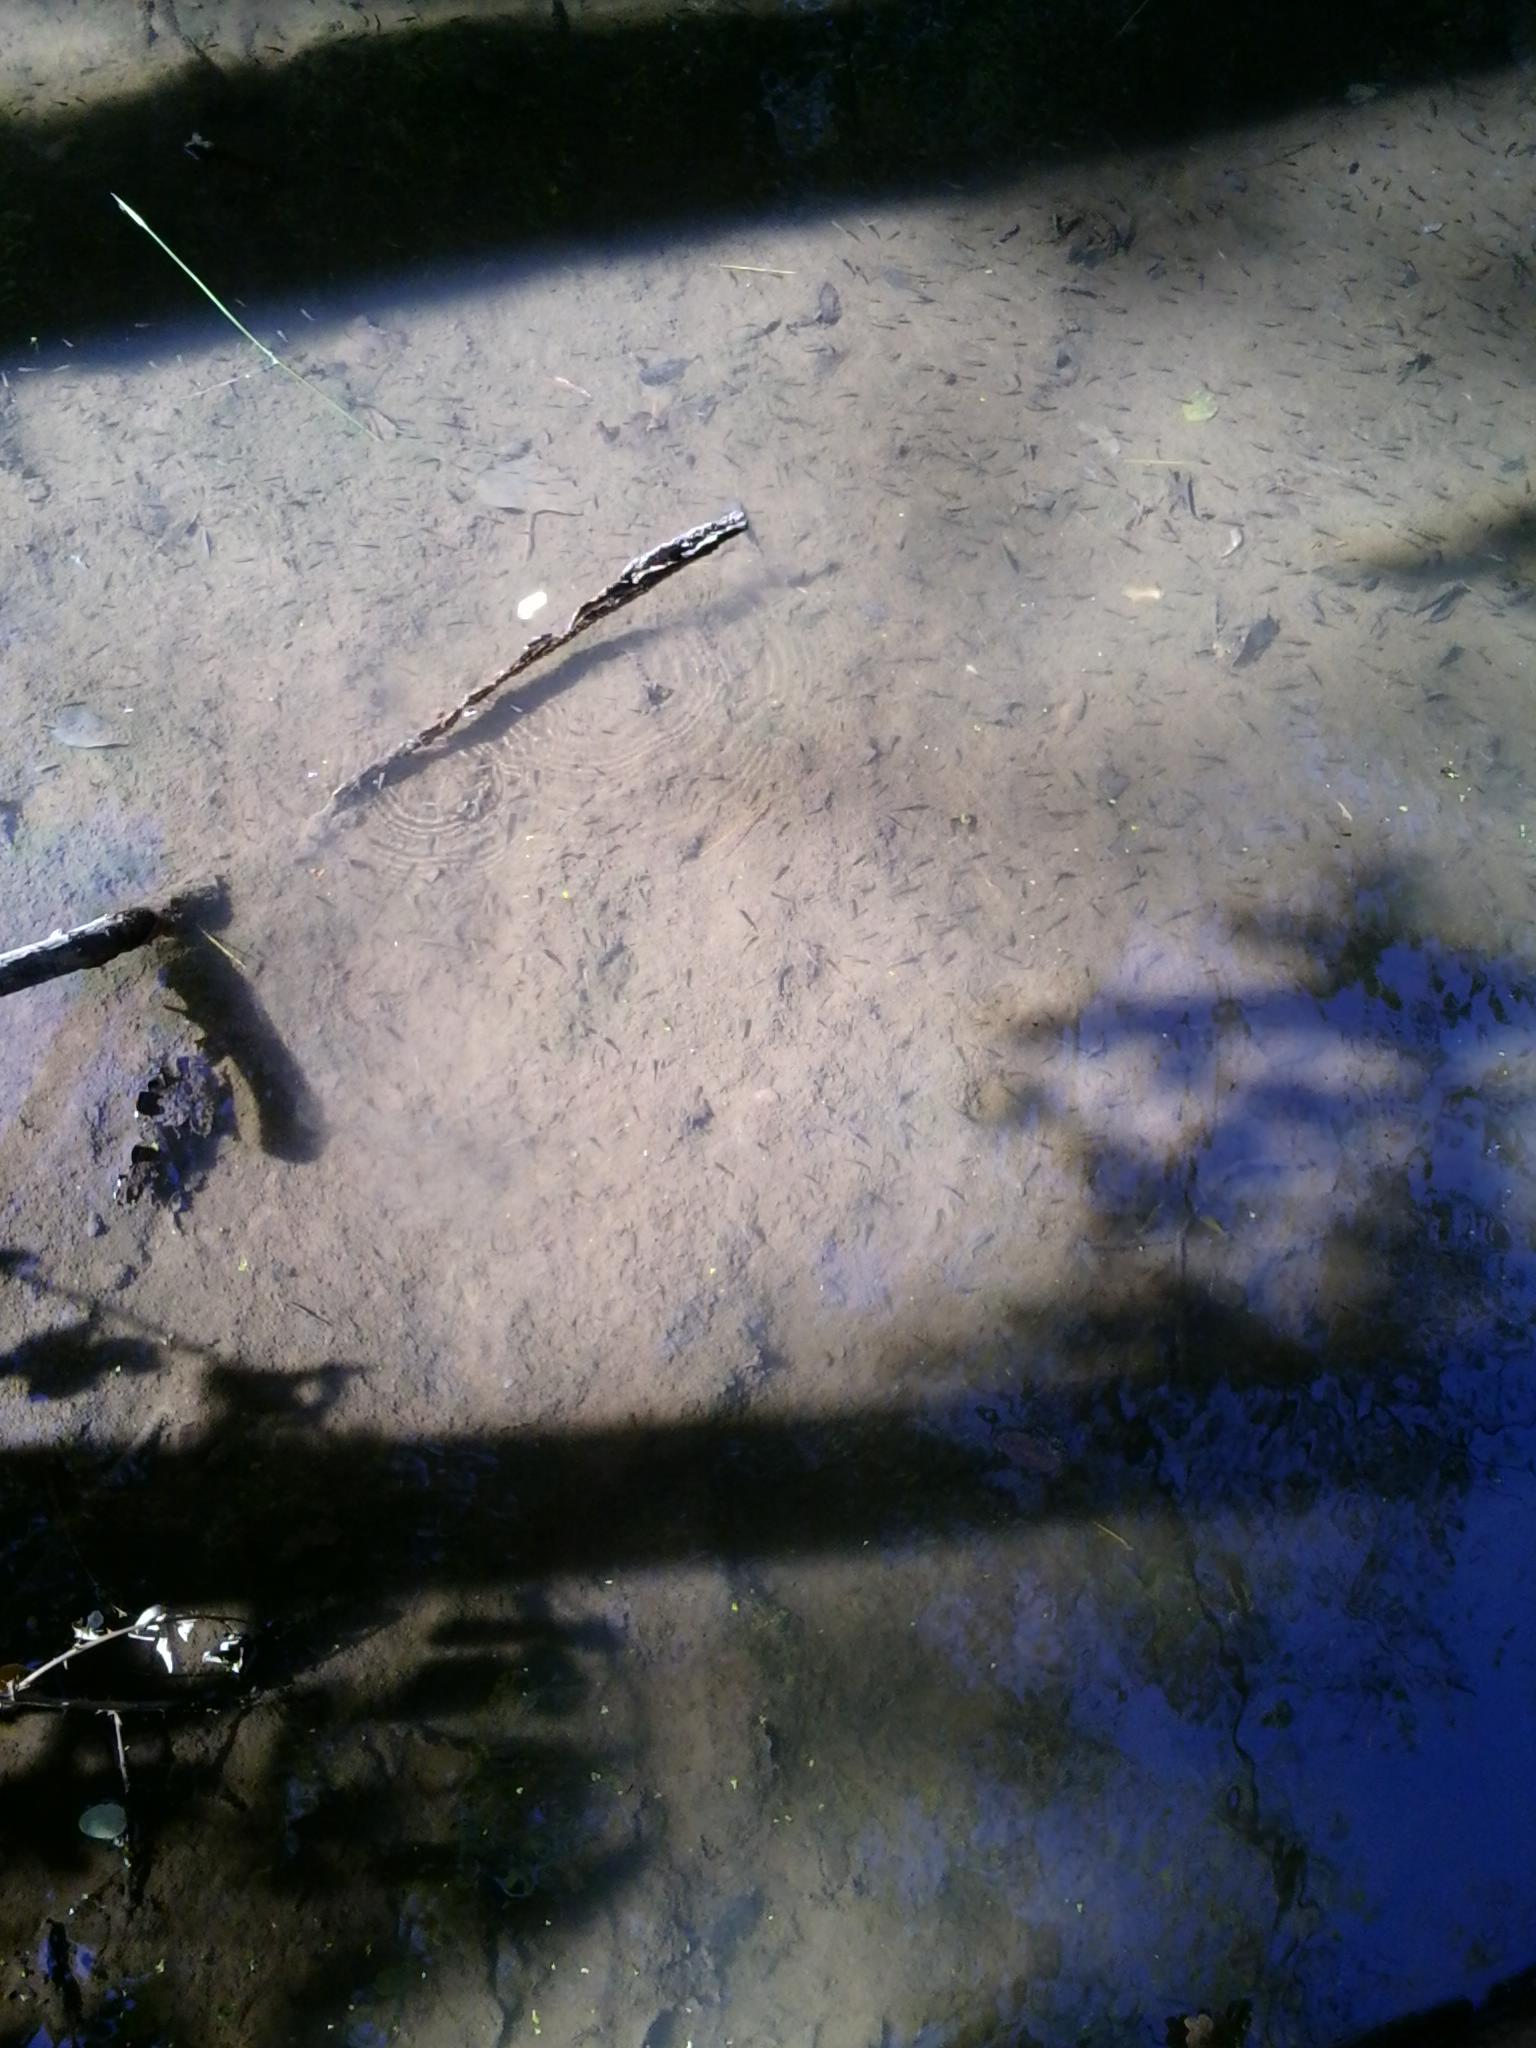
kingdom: Animalia
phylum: Chordata
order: Cyprinodontiformes
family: Poeciliidae
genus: Gambusia
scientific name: Gambusia affinis
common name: Mosquitofish
